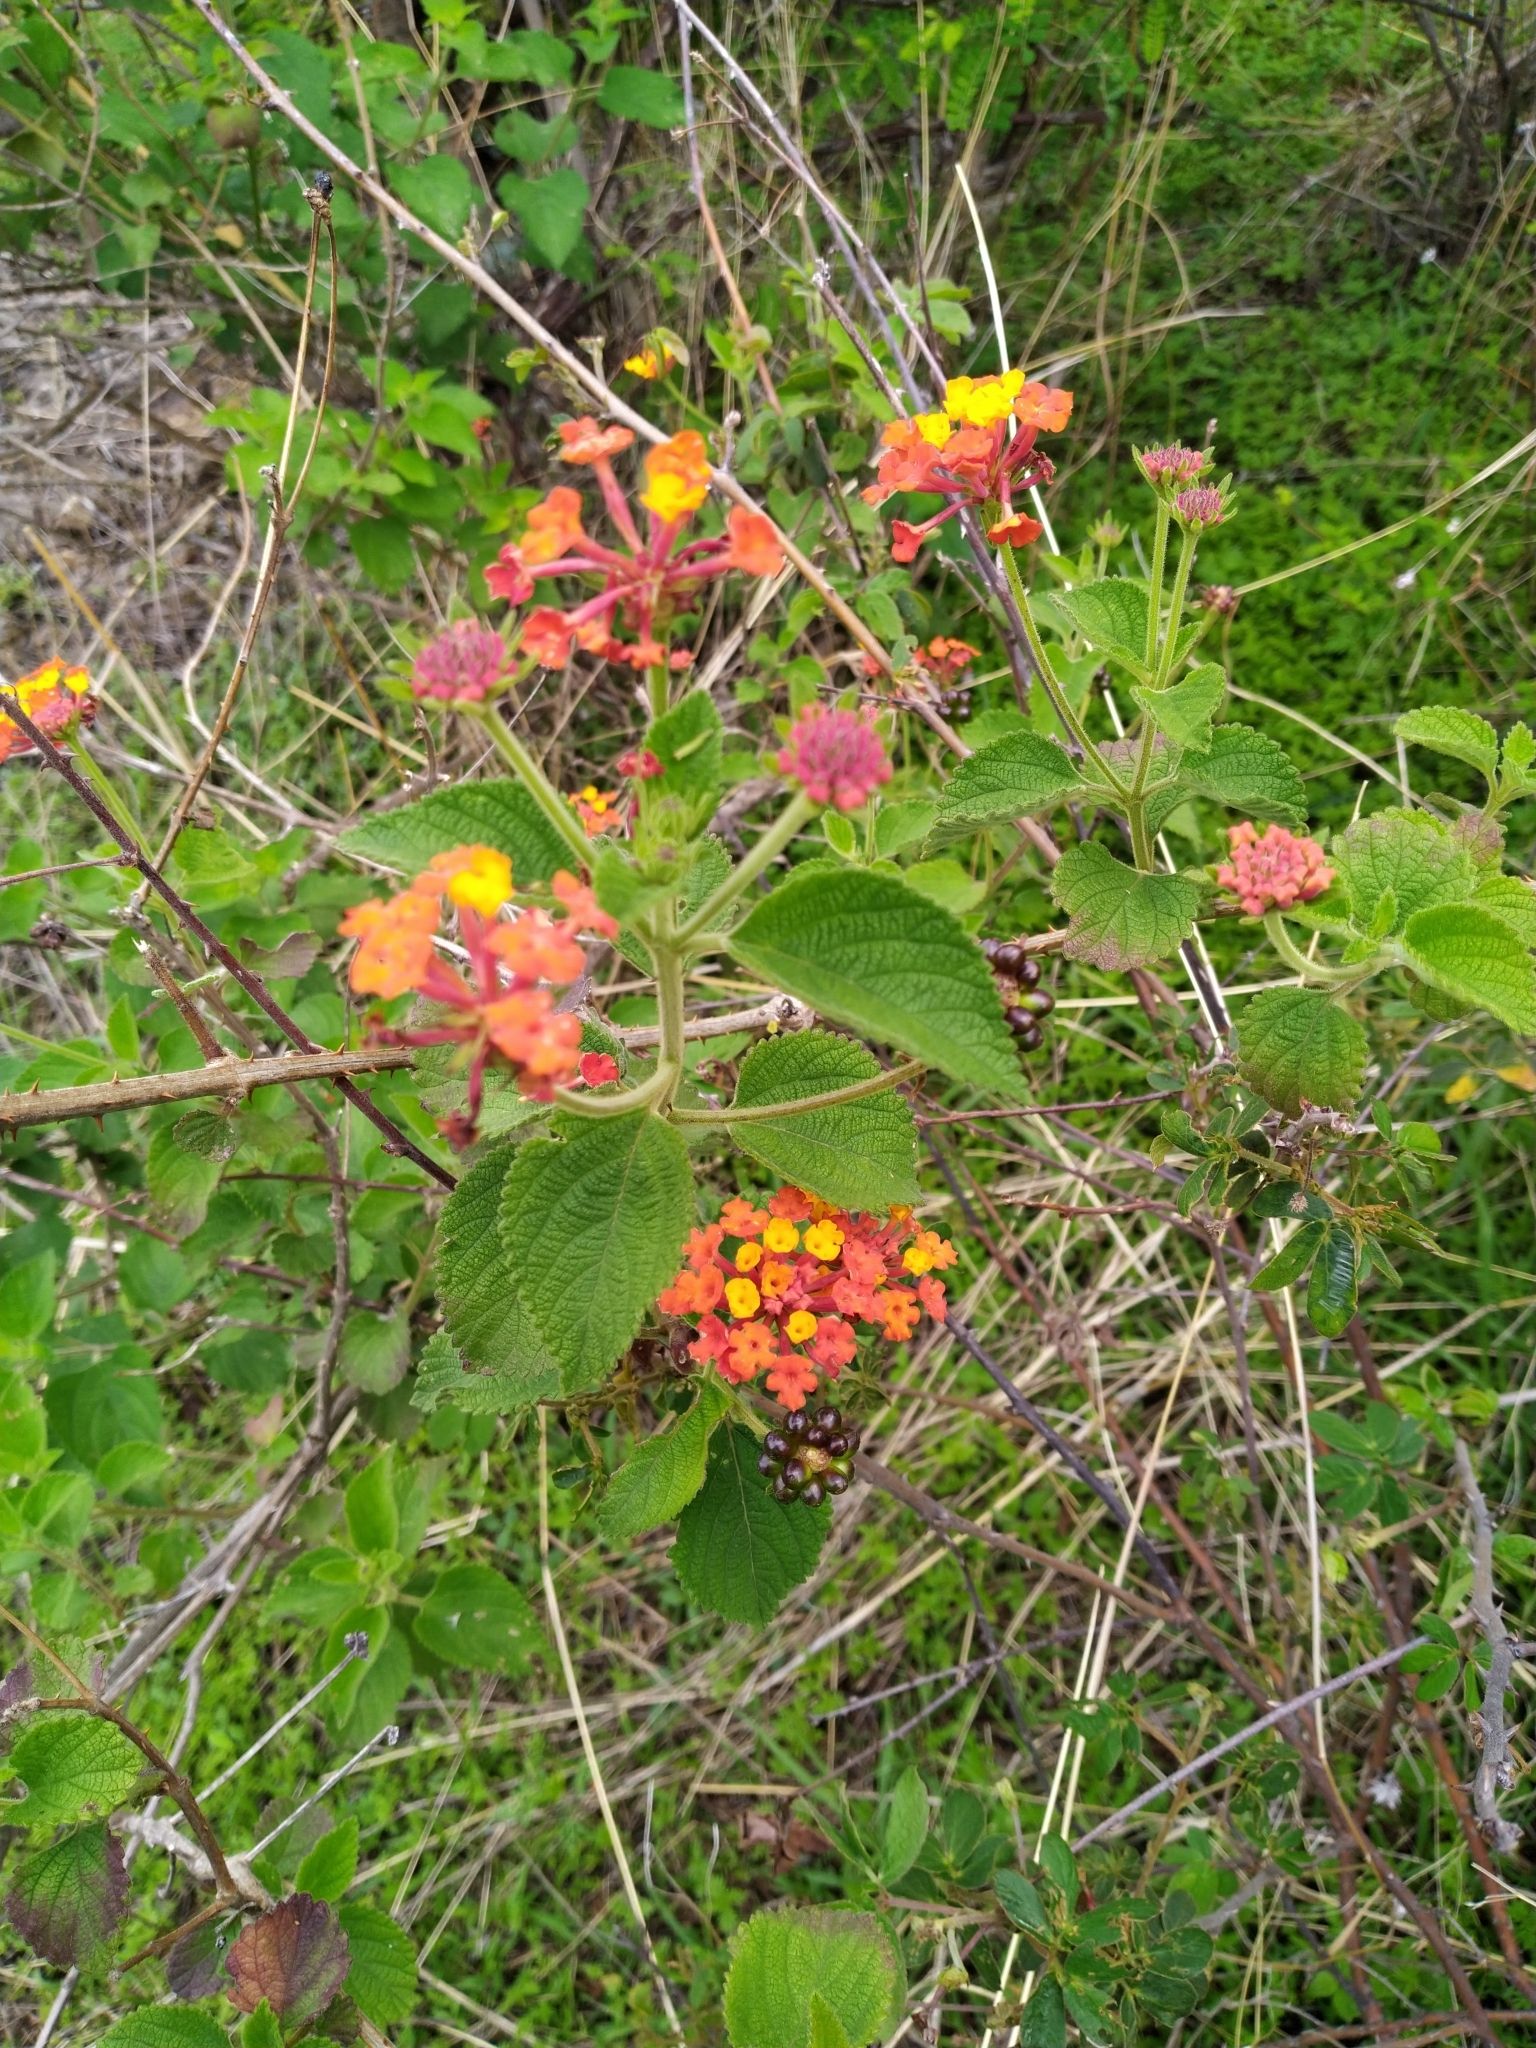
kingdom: Plantae
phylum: Tracheophyta
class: Magnoliopsida
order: Lamiales
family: Verbenaceae
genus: Lantana
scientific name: Lantana camara
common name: Lantana
